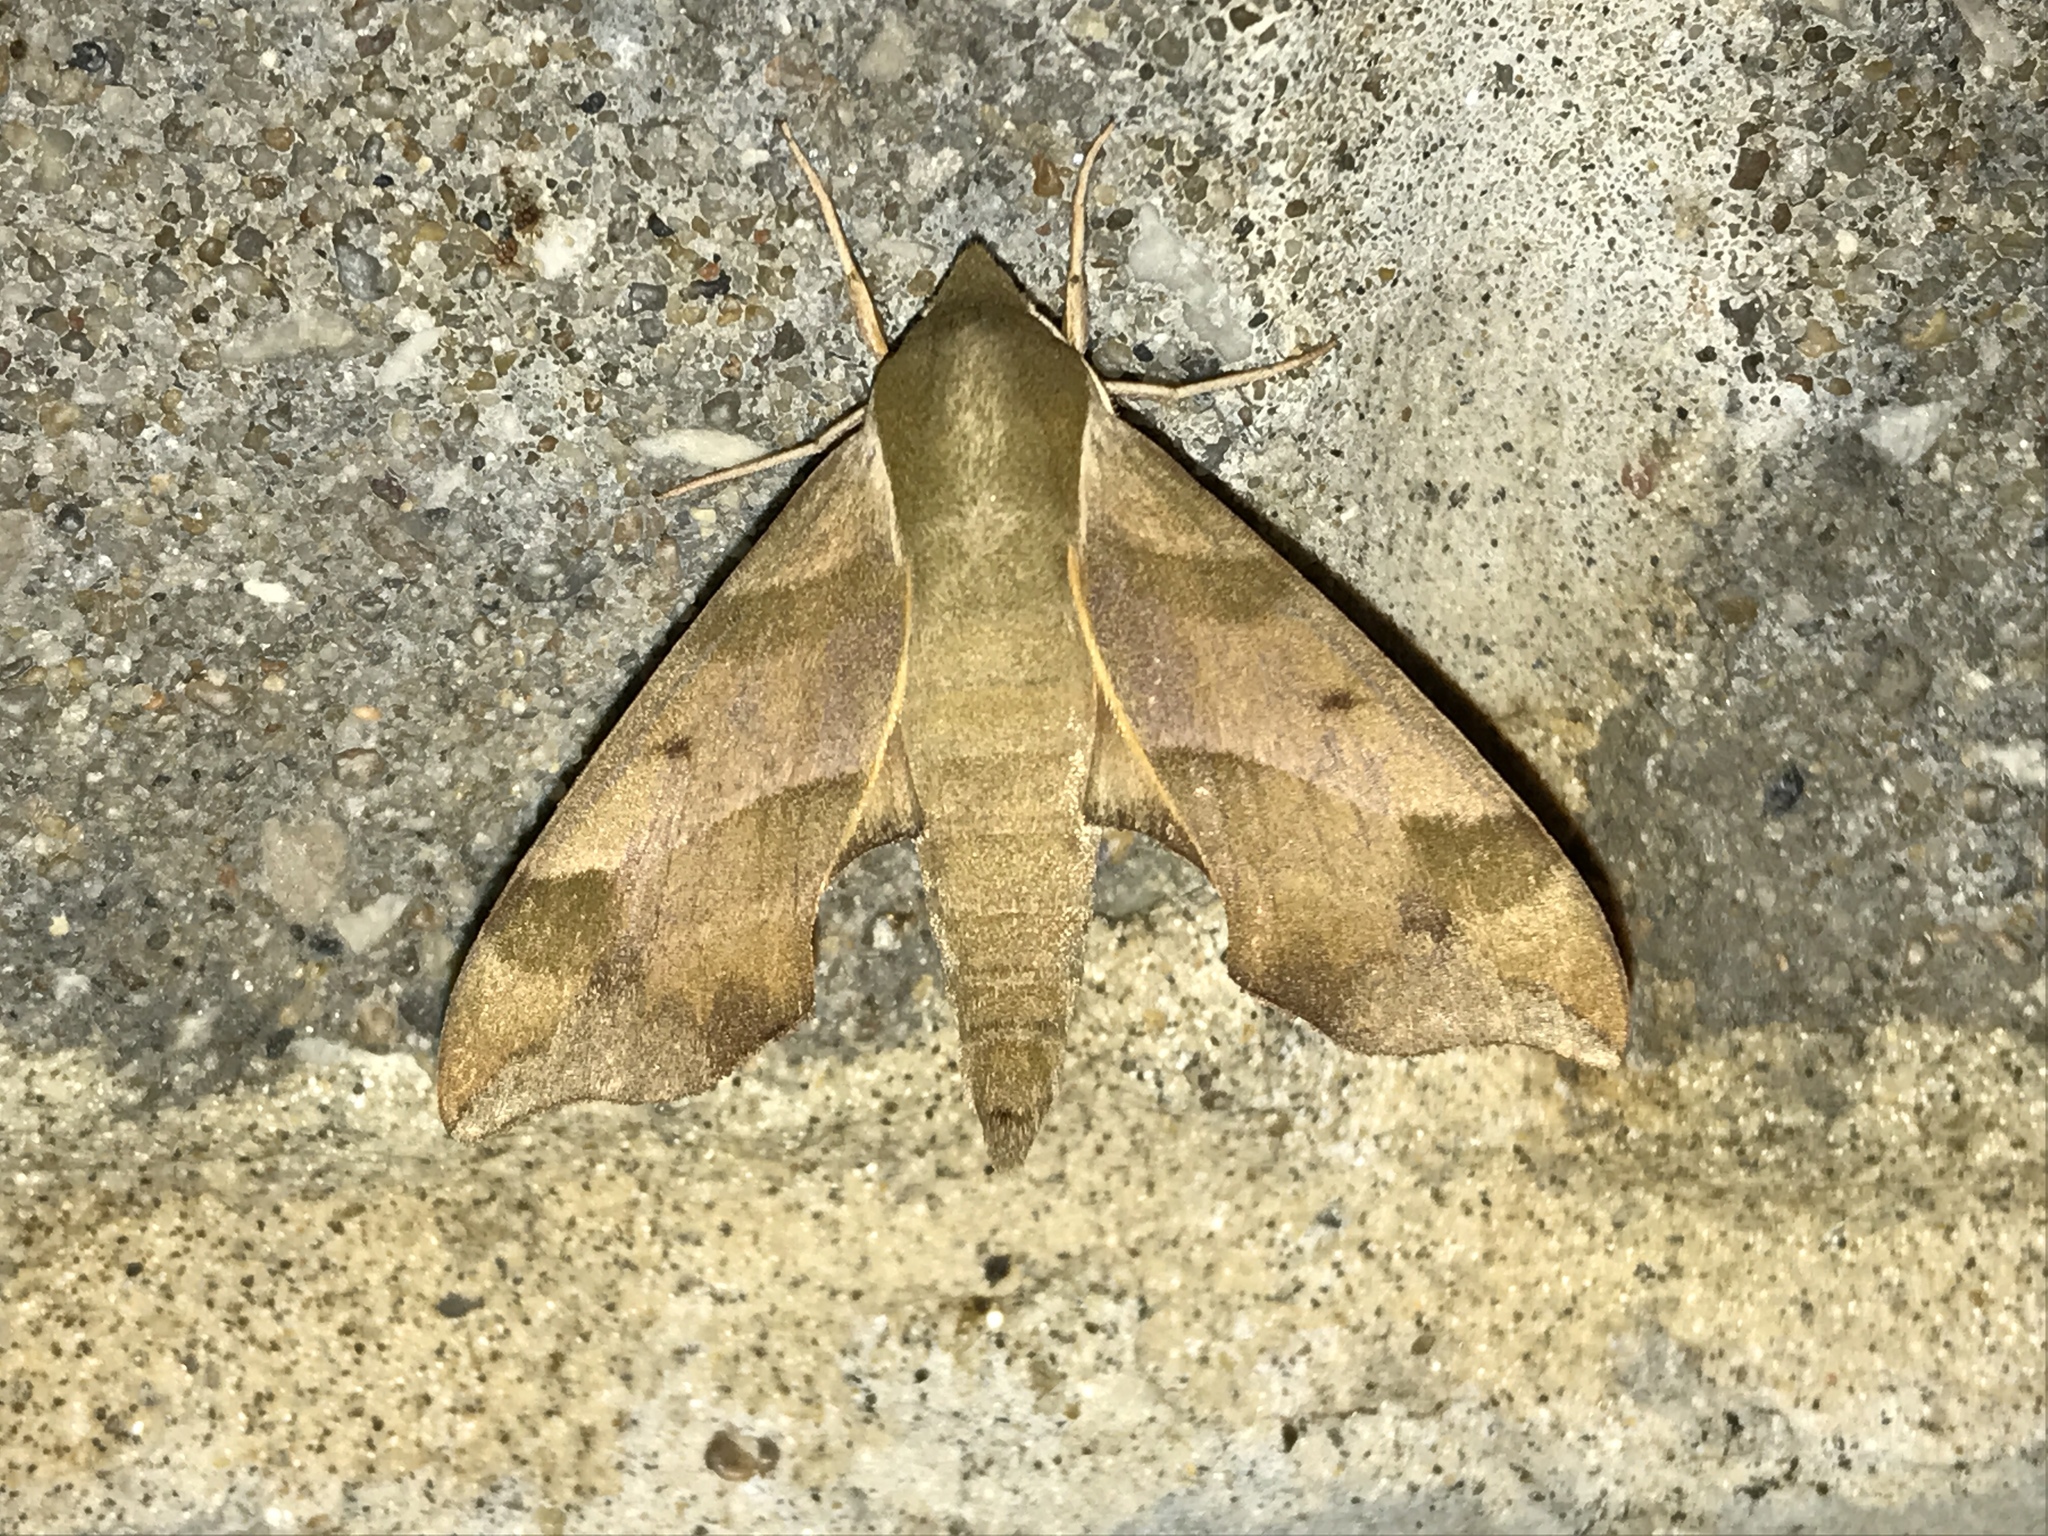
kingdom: Animalia
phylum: Arthropoda
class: Insecta
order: Lepidoptera
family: Sphingidae
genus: Darapsa
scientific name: Darapsa myron
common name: Hog sphinx
